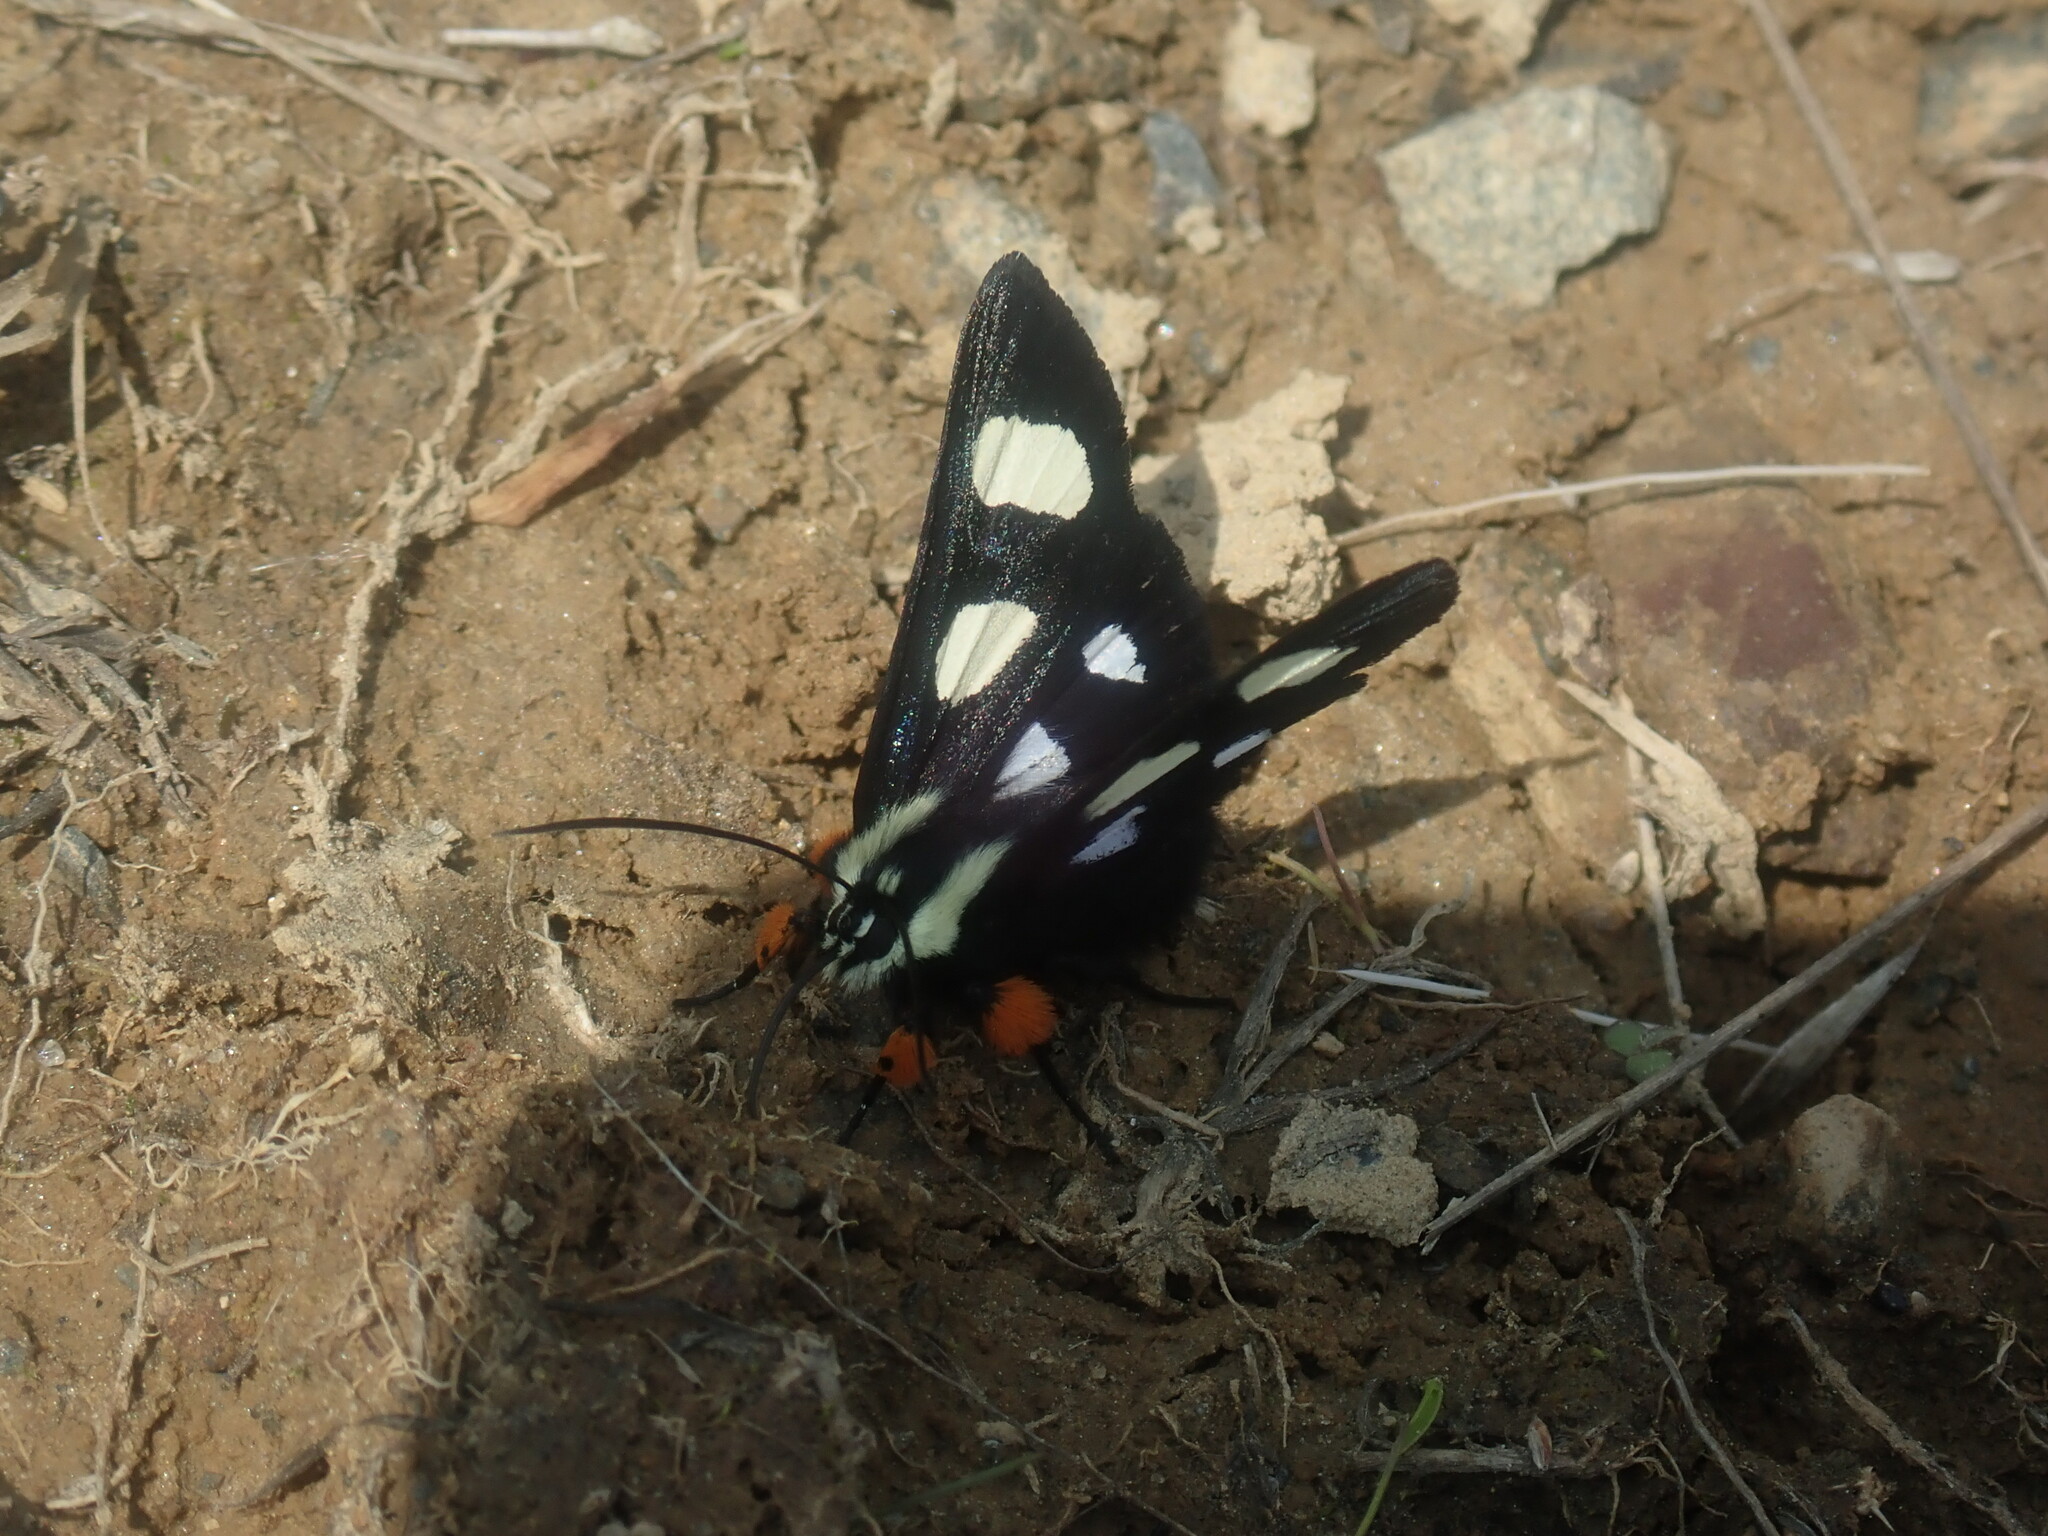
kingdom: Animalia
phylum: Arthropoda
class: Insecta
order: Lepidoptera
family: Noctuidae
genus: Alypia
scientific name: Alypia octomaculata
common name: Eight-spotted forester
